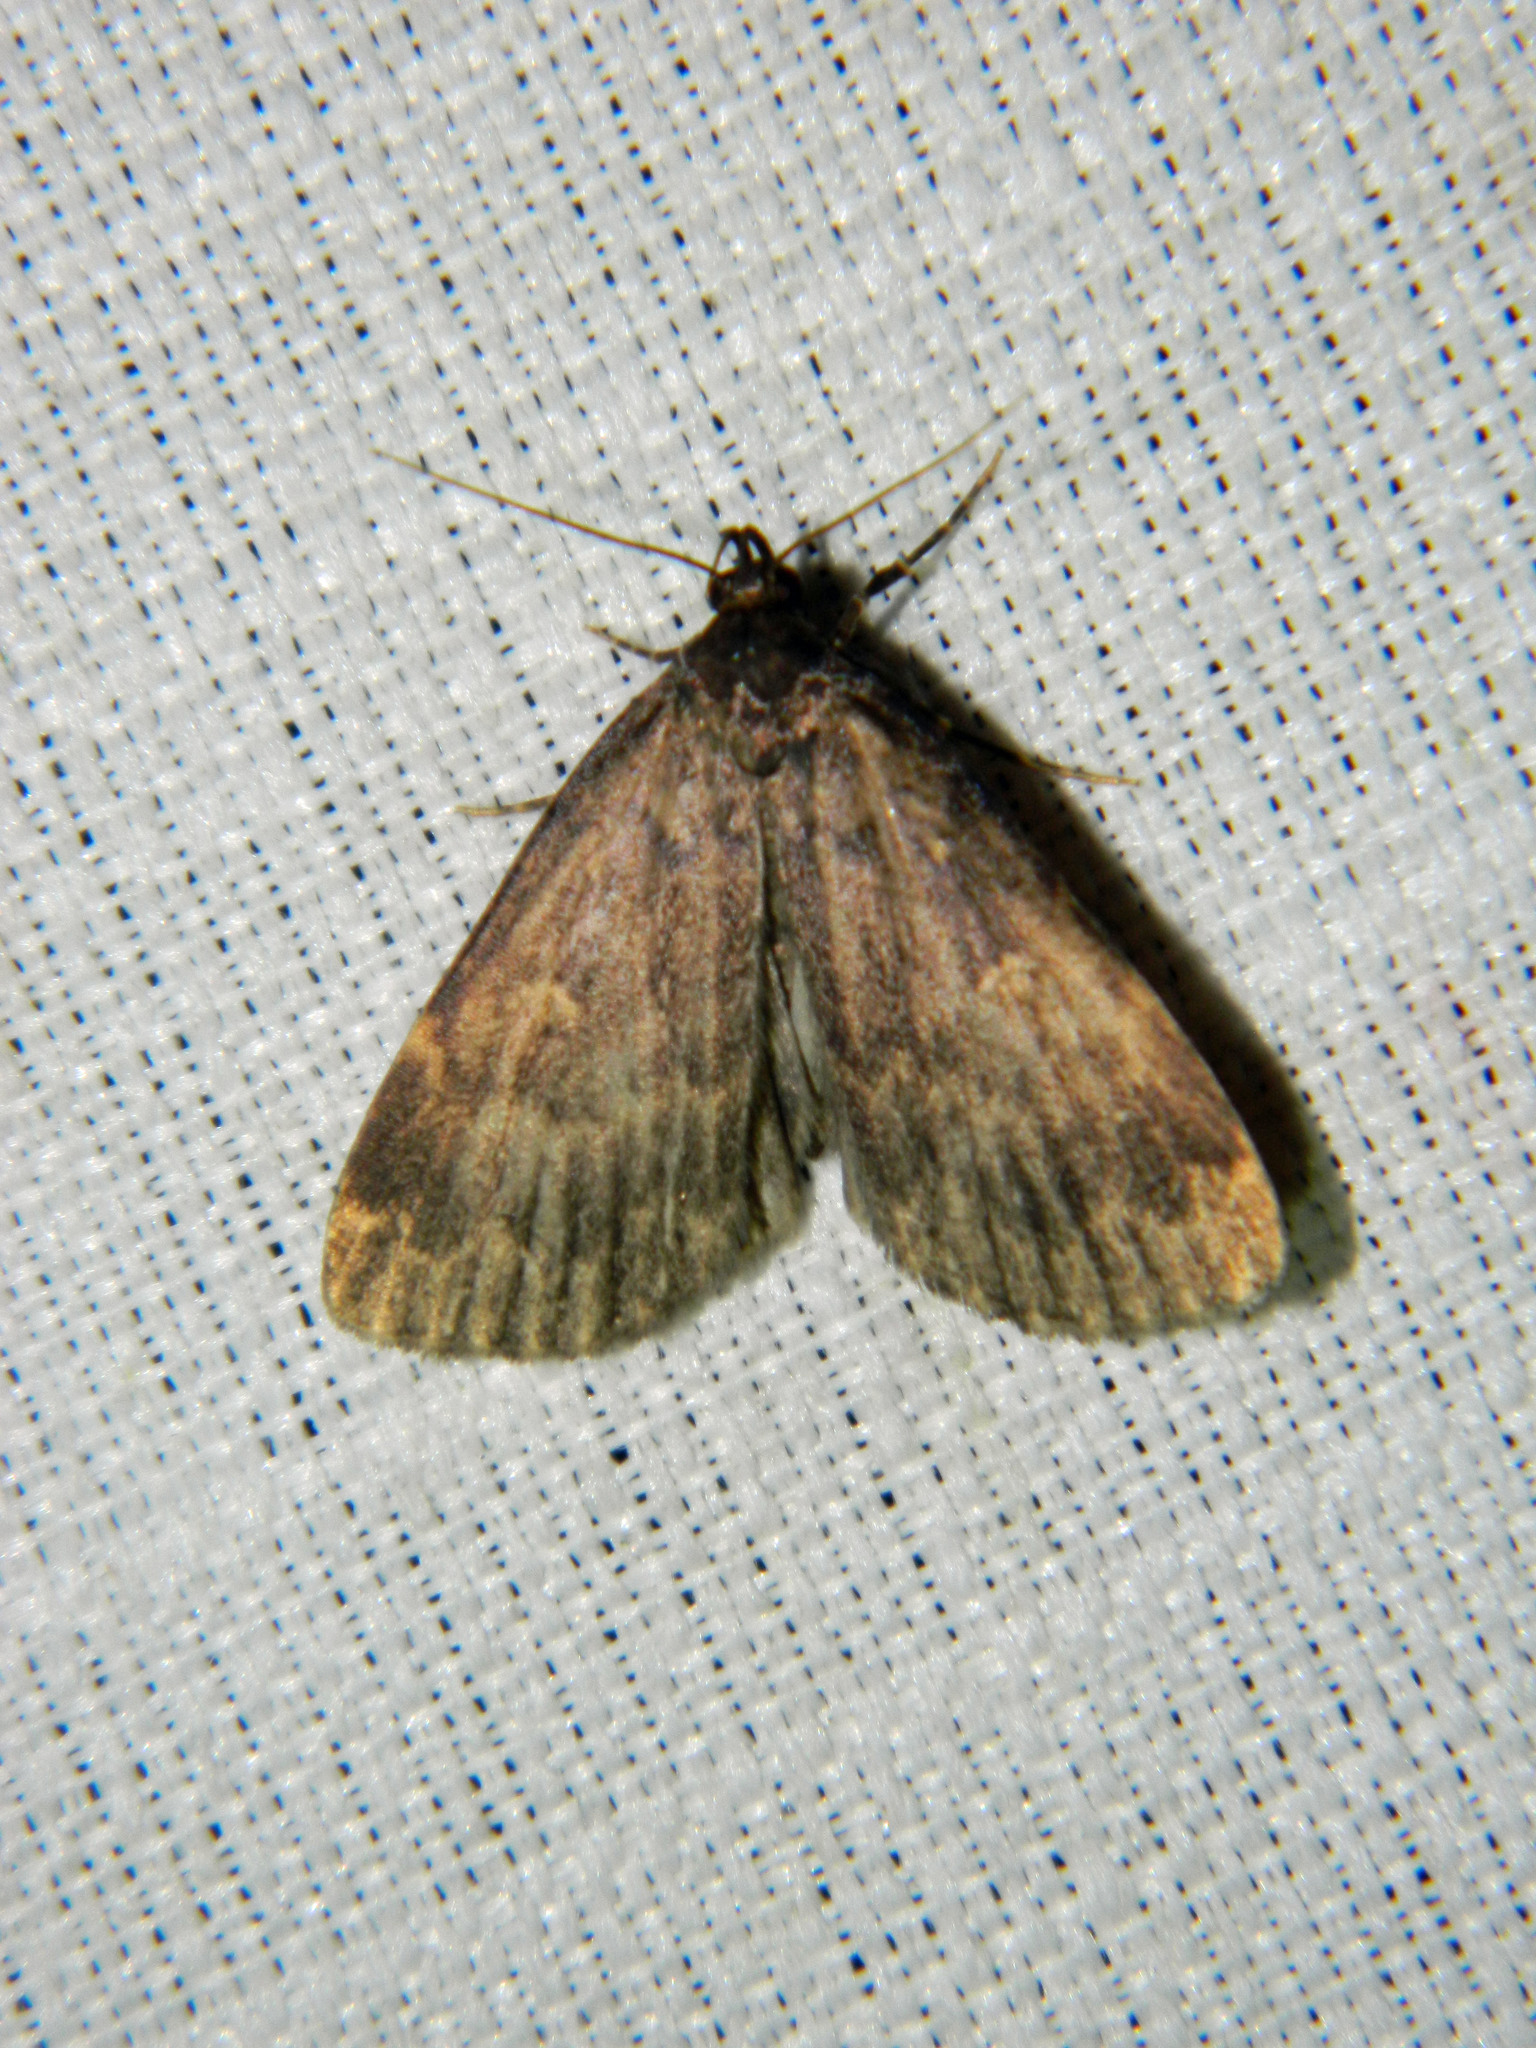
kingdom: Animalia
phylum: Arthropoda
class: Insecta
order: Lepidoptera
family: Erebidae
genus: Idia
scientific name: Idia lubricalis
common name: Twin-striped tabby
